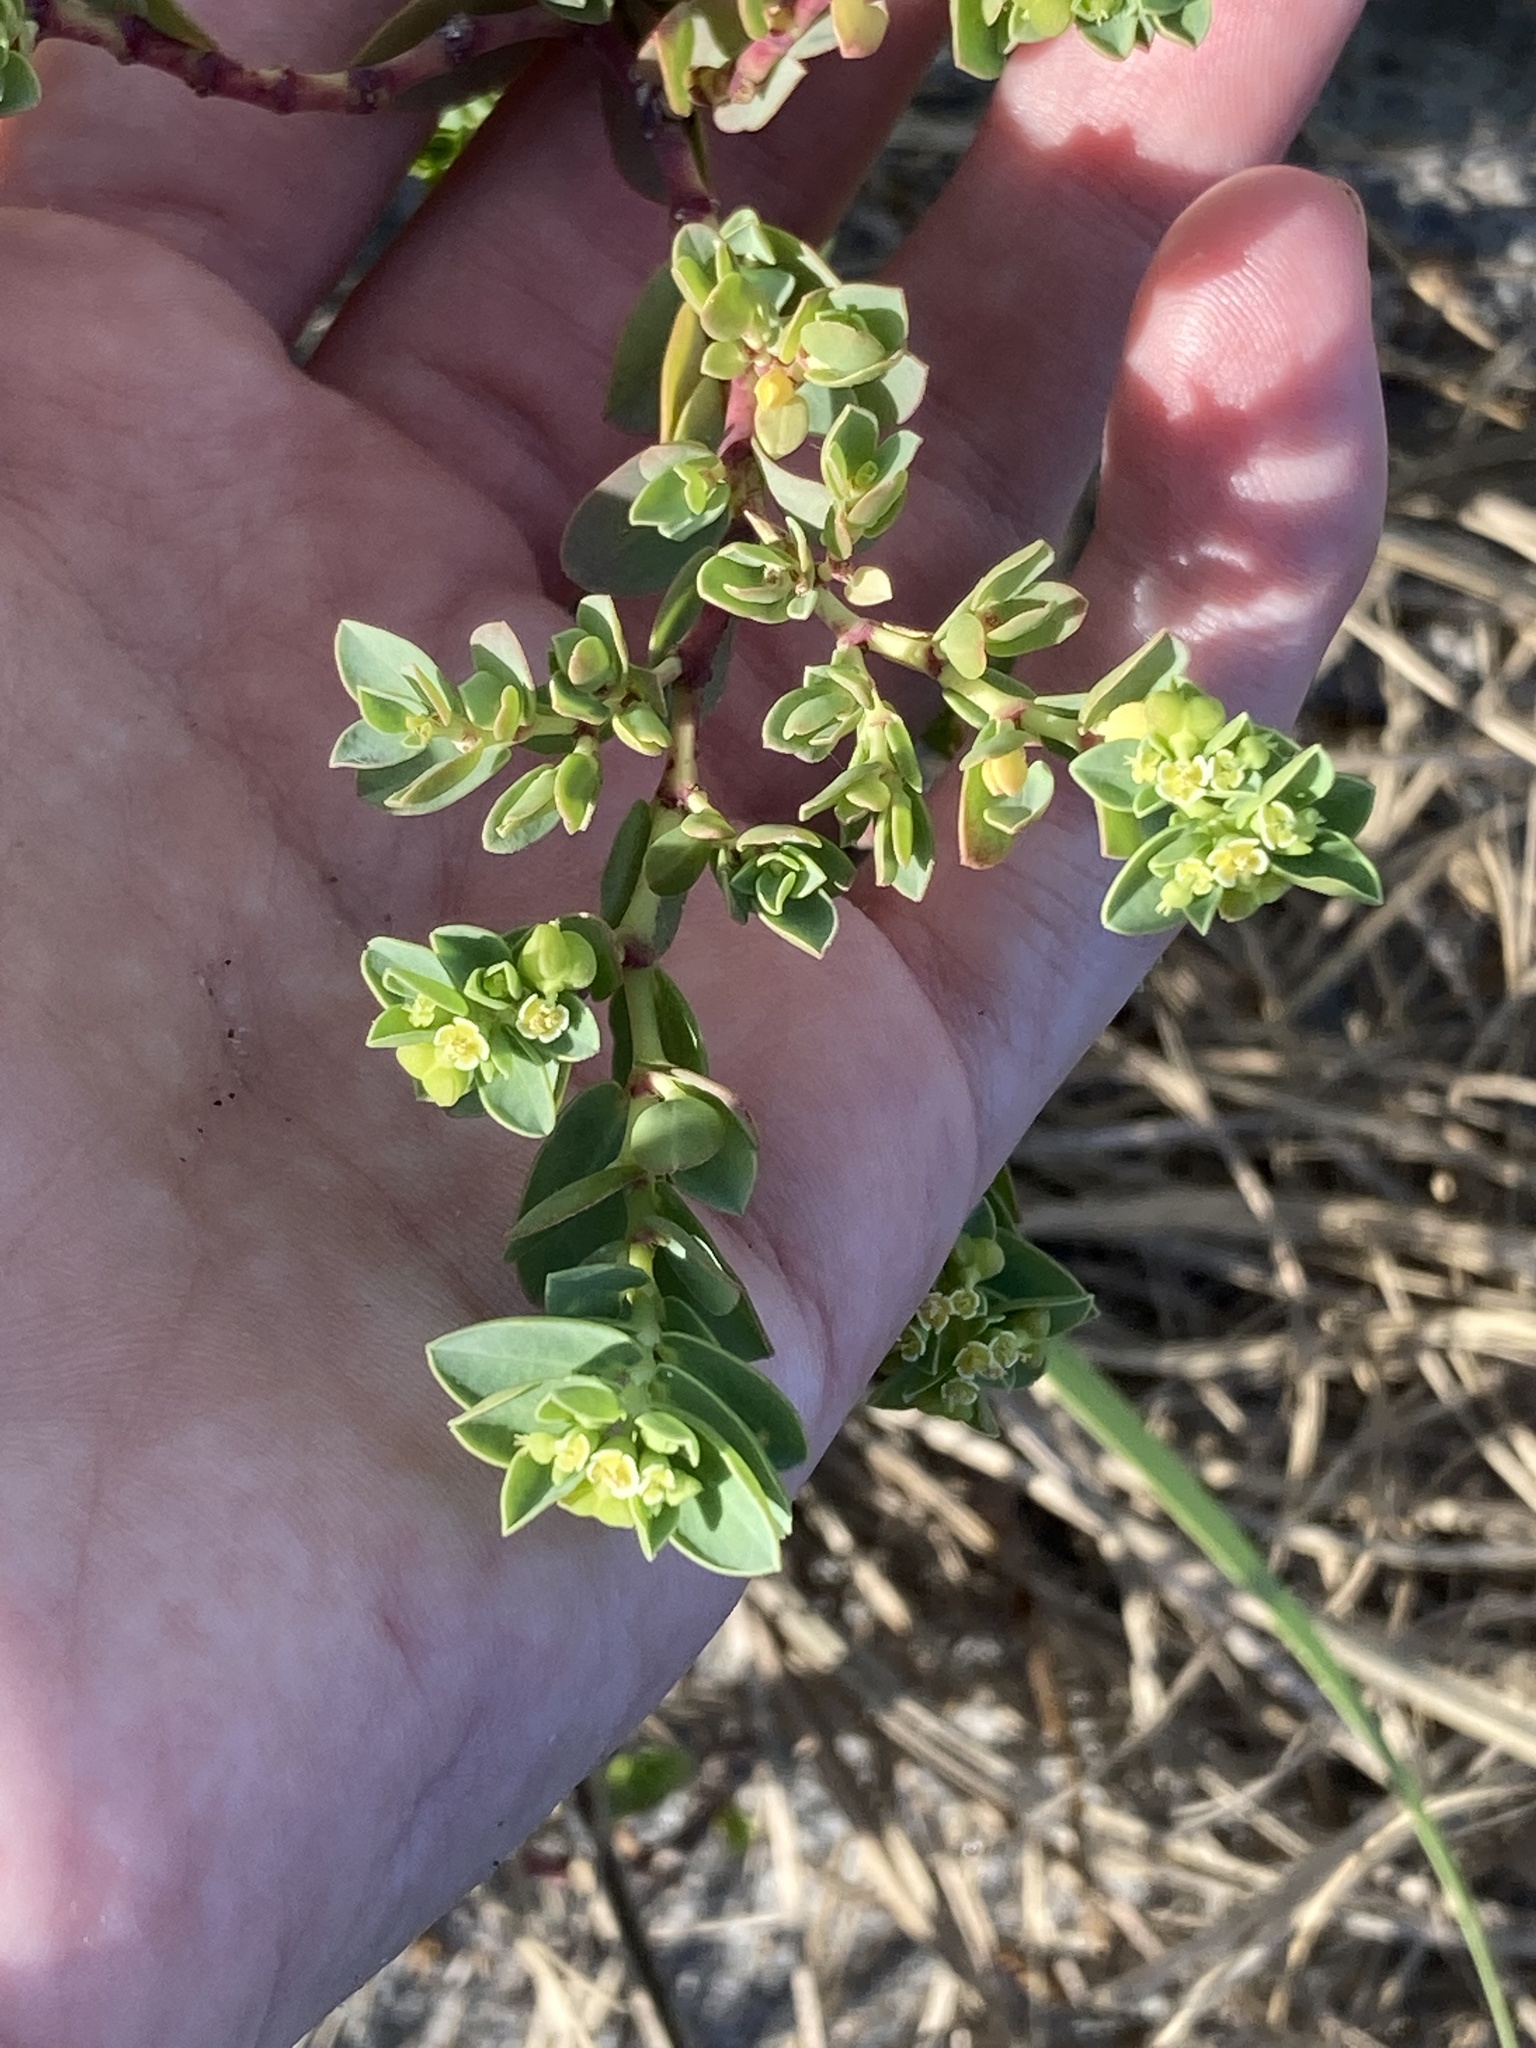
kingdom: Plantae
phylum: Tracheophyta
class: Magnoliopsida
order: Malpighiales
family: Euphorbiaceae
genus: Euphorbia
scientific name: Euphorbia mesembryanthemifolia
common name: Coastal beach sandmat
